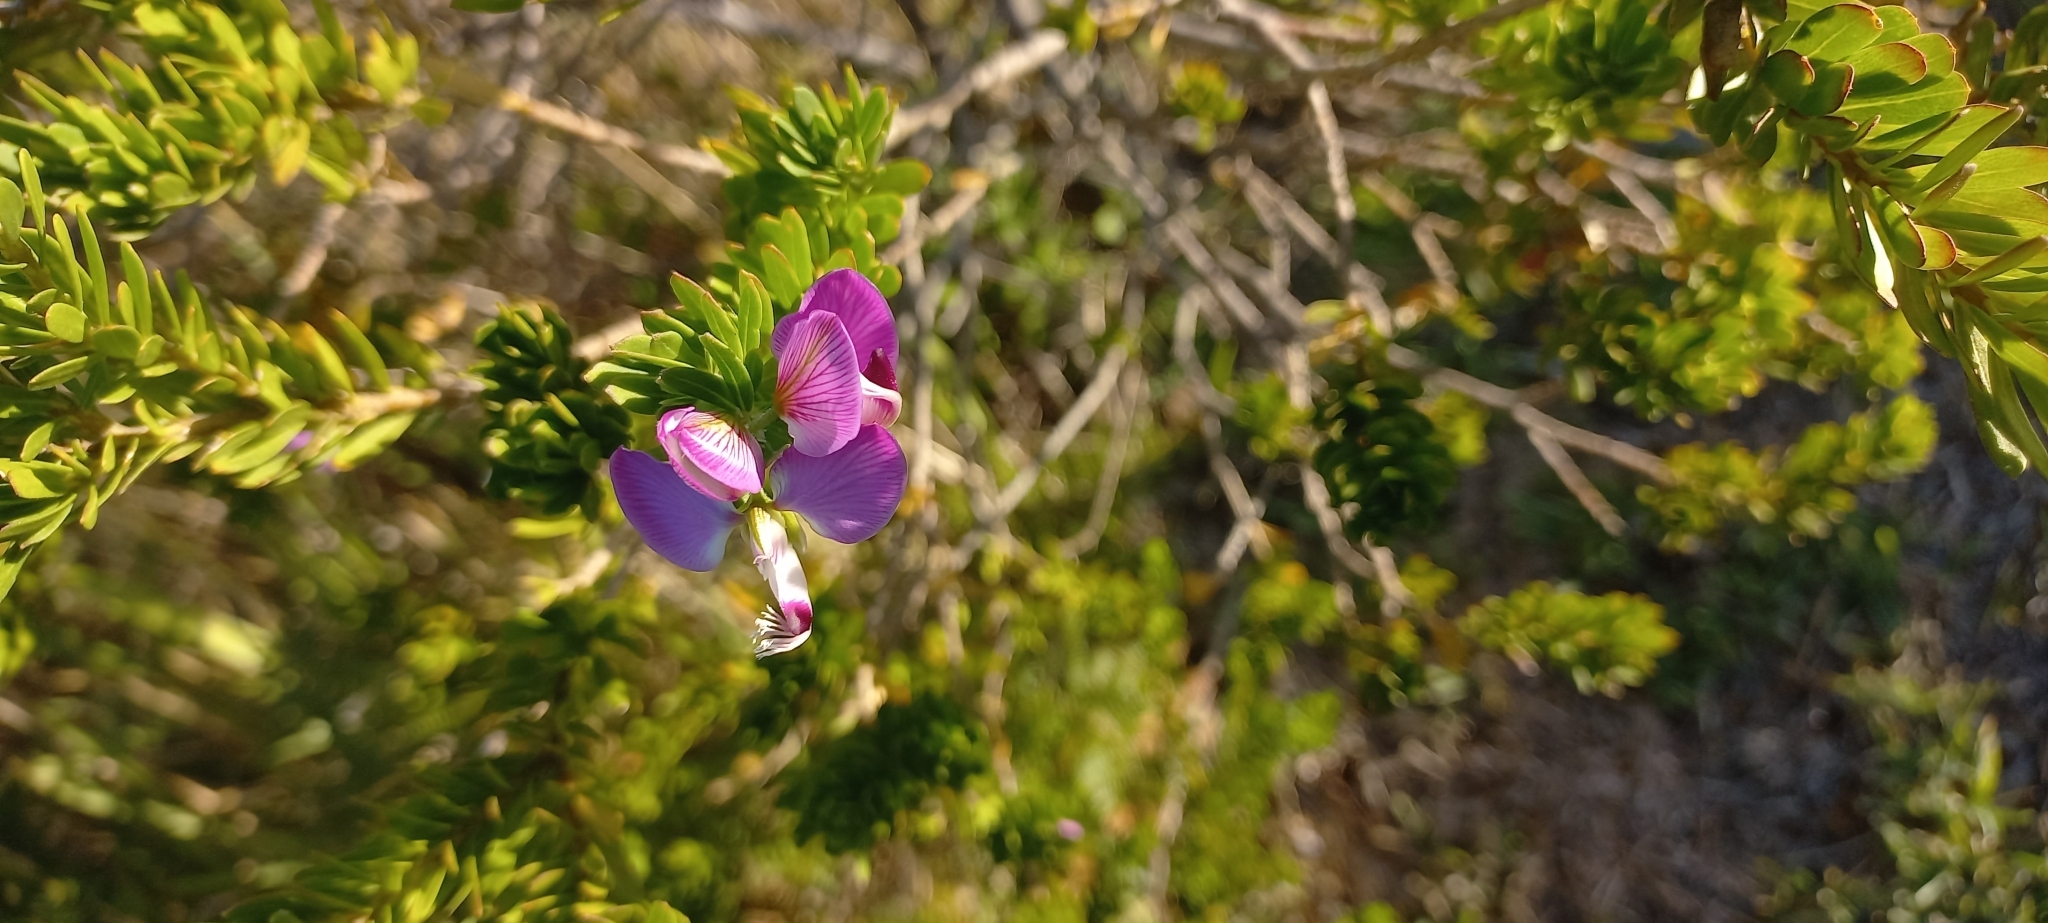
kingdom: Plantae
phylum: Tracheophyta
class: Magnoliopsida
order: Fabales
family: Polygalaceae
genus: Polygala
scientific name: Polygala myrtifolia
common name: Myrtle-leaf milkwort
